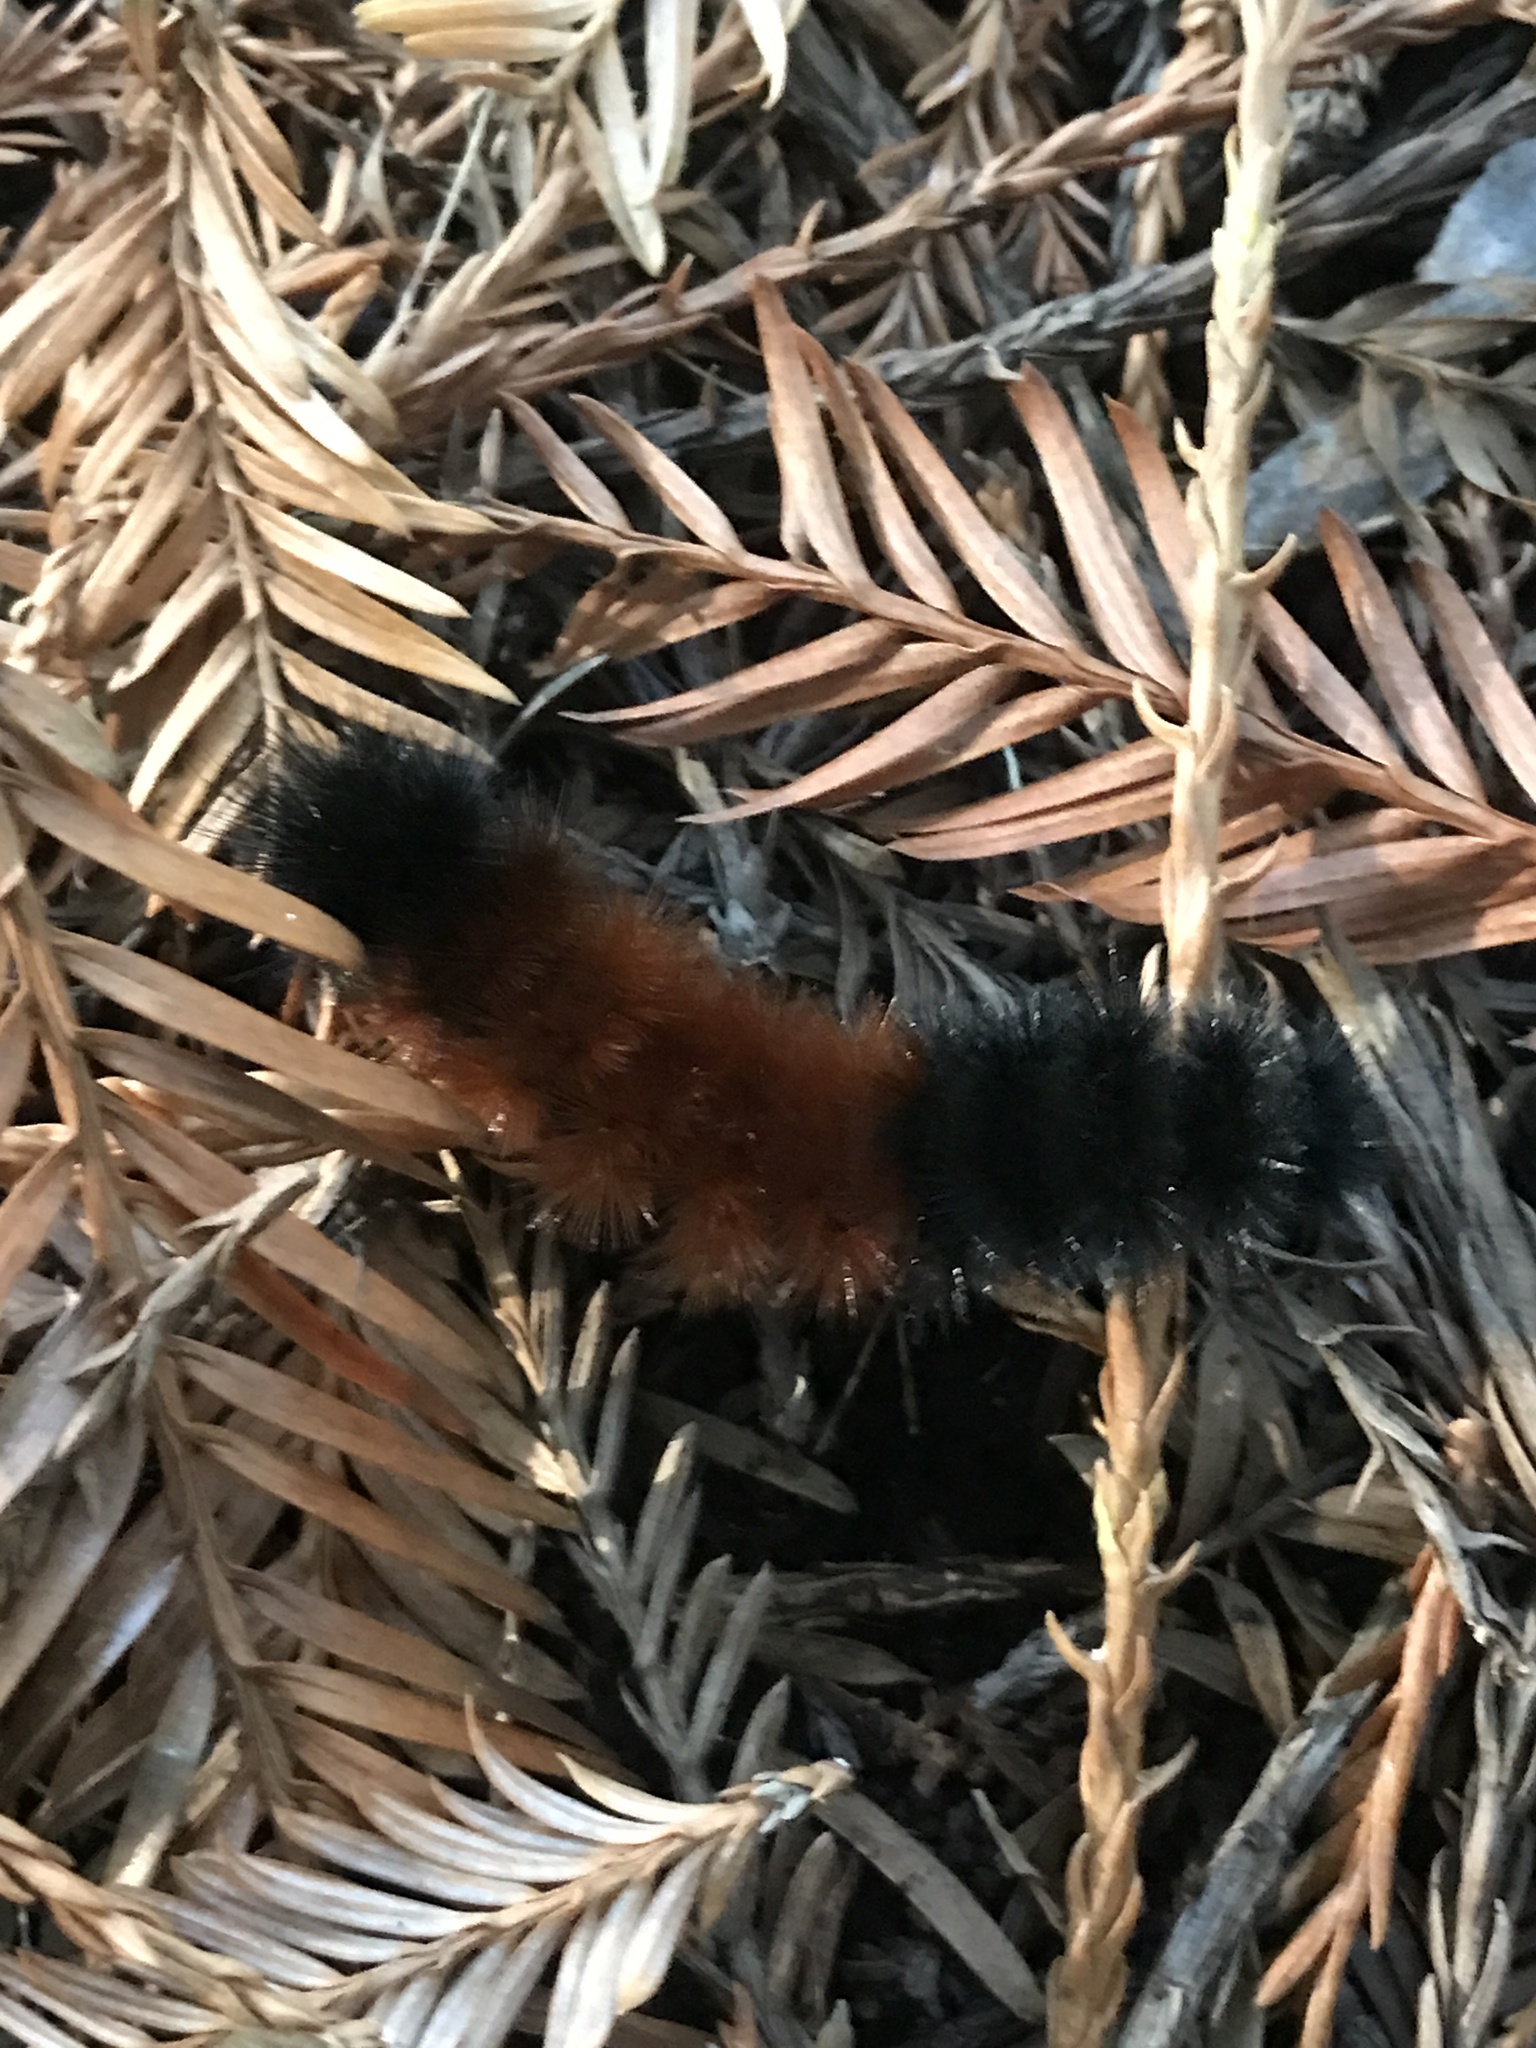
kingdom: Animalia
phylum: Arthropoda
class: Insecta
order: Lepidoptera
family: Erebidae
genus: Pyrrharctia
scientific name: Pyrrharctia isabella
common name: Isabella tiger moth
